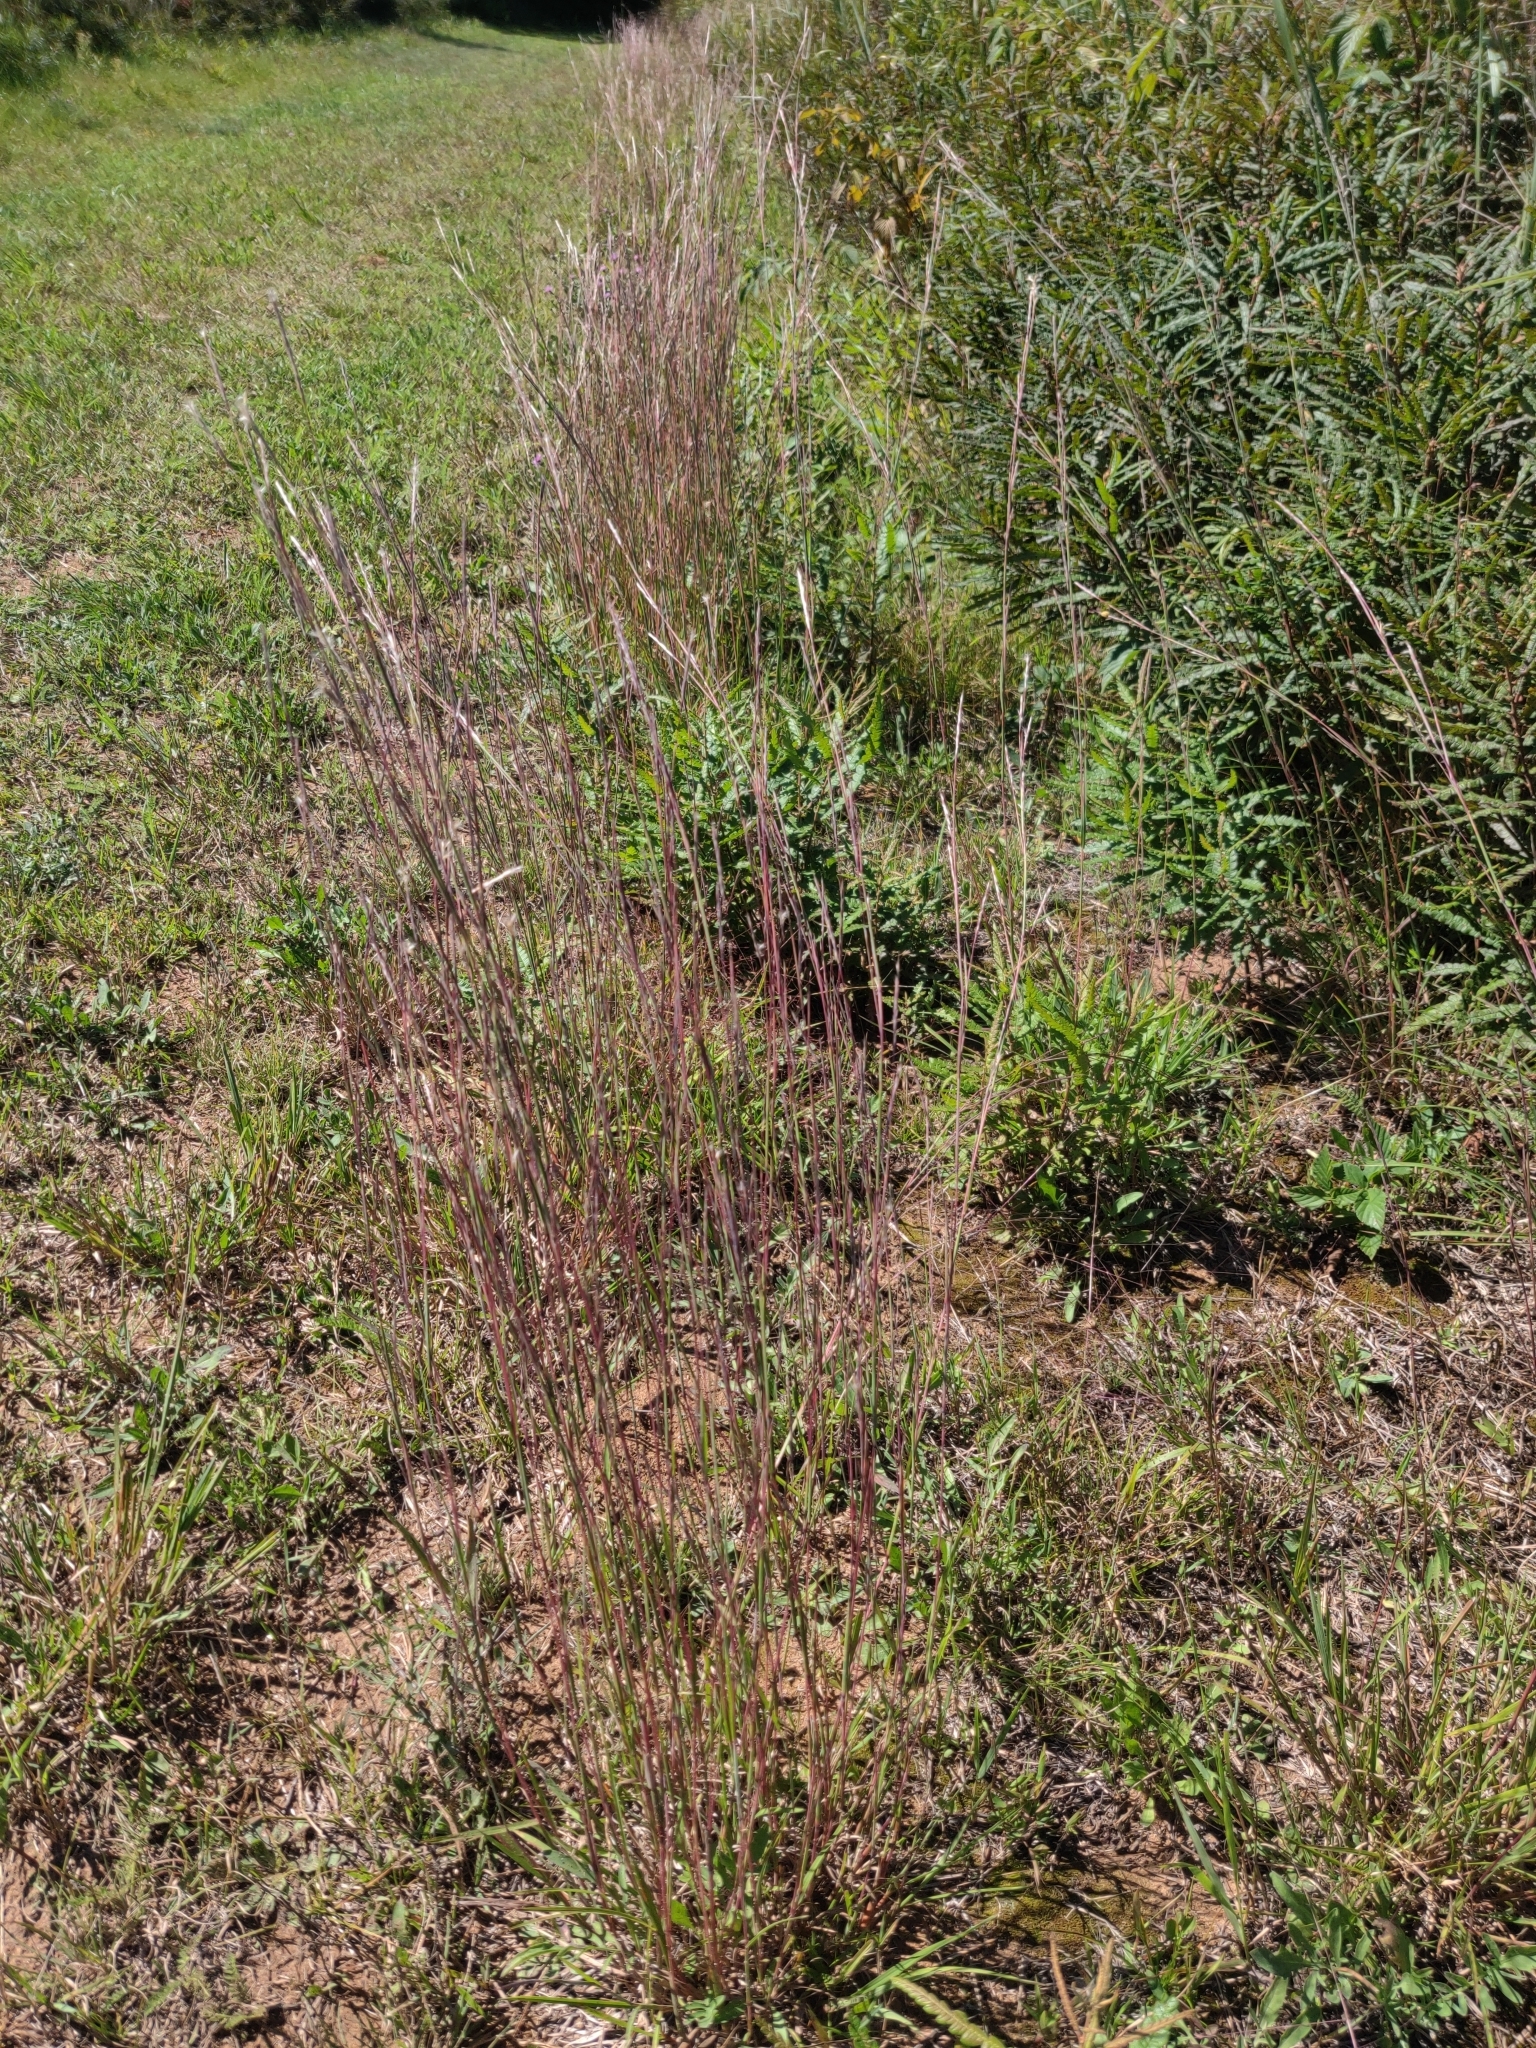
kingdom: Plantae
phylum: Tracheophyta
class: Liliopsida
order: Poales
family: Poaceae
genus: Schizachyrium
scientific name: Schizachyrium scoparium
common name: Little bluestem
